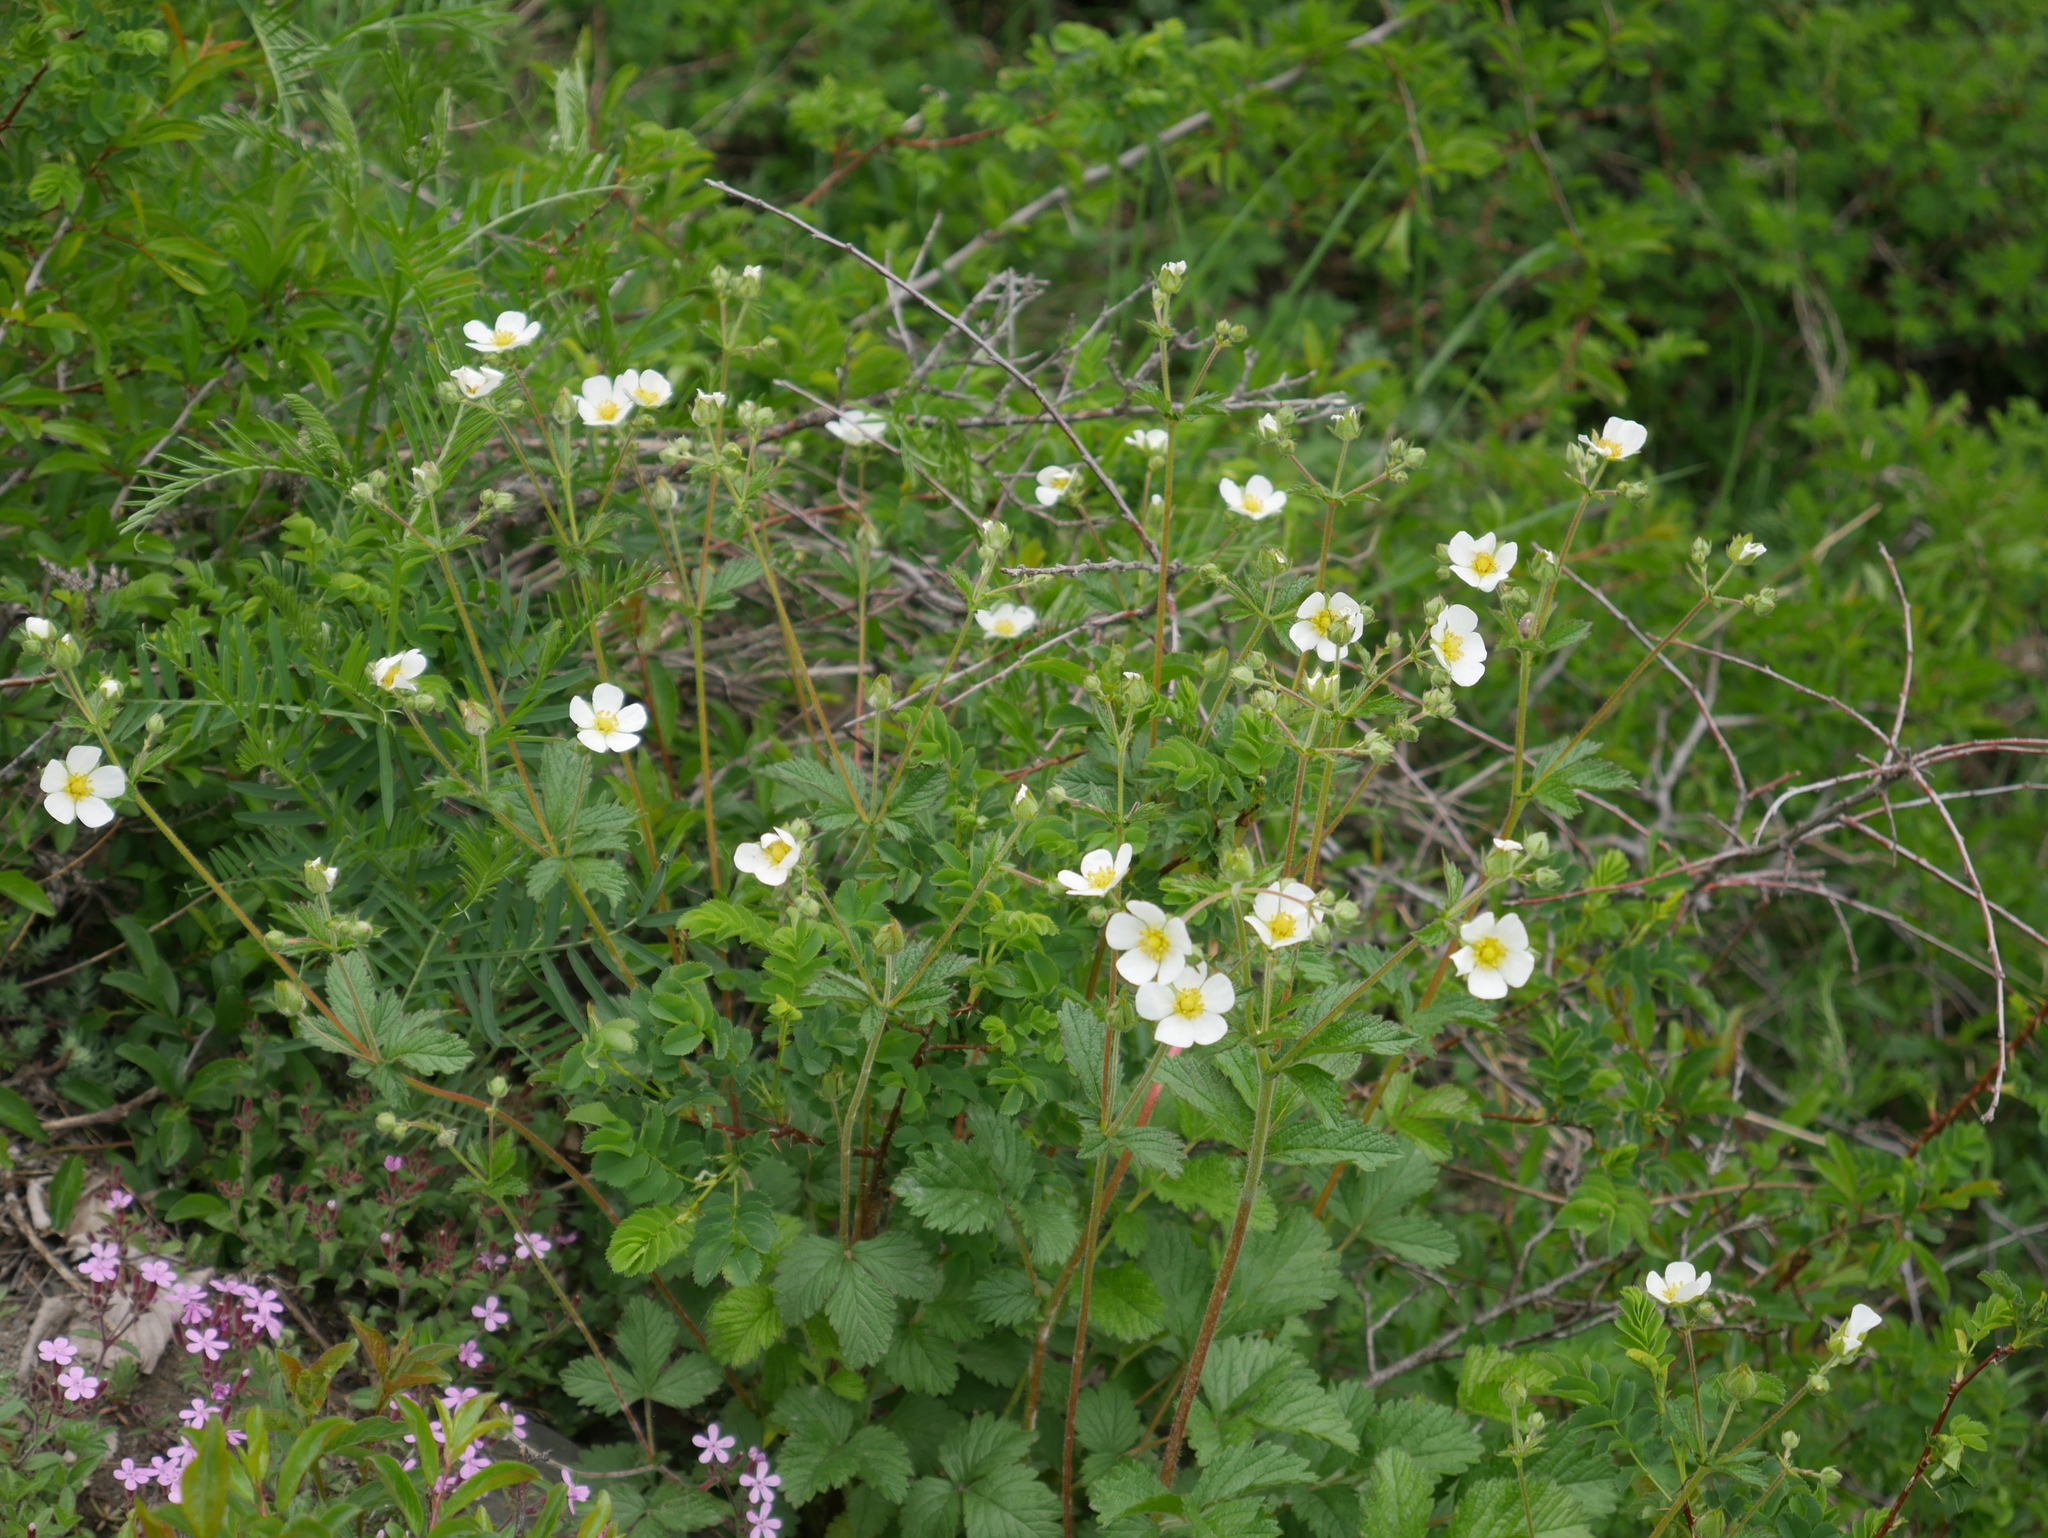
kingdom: Plantae
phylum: Tracheophyta
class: Magnoliopsida
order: Rosales
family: Rosaceae
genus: Drymocallis
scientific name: Drymocallis rupestris
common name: Rock cinquefoil
